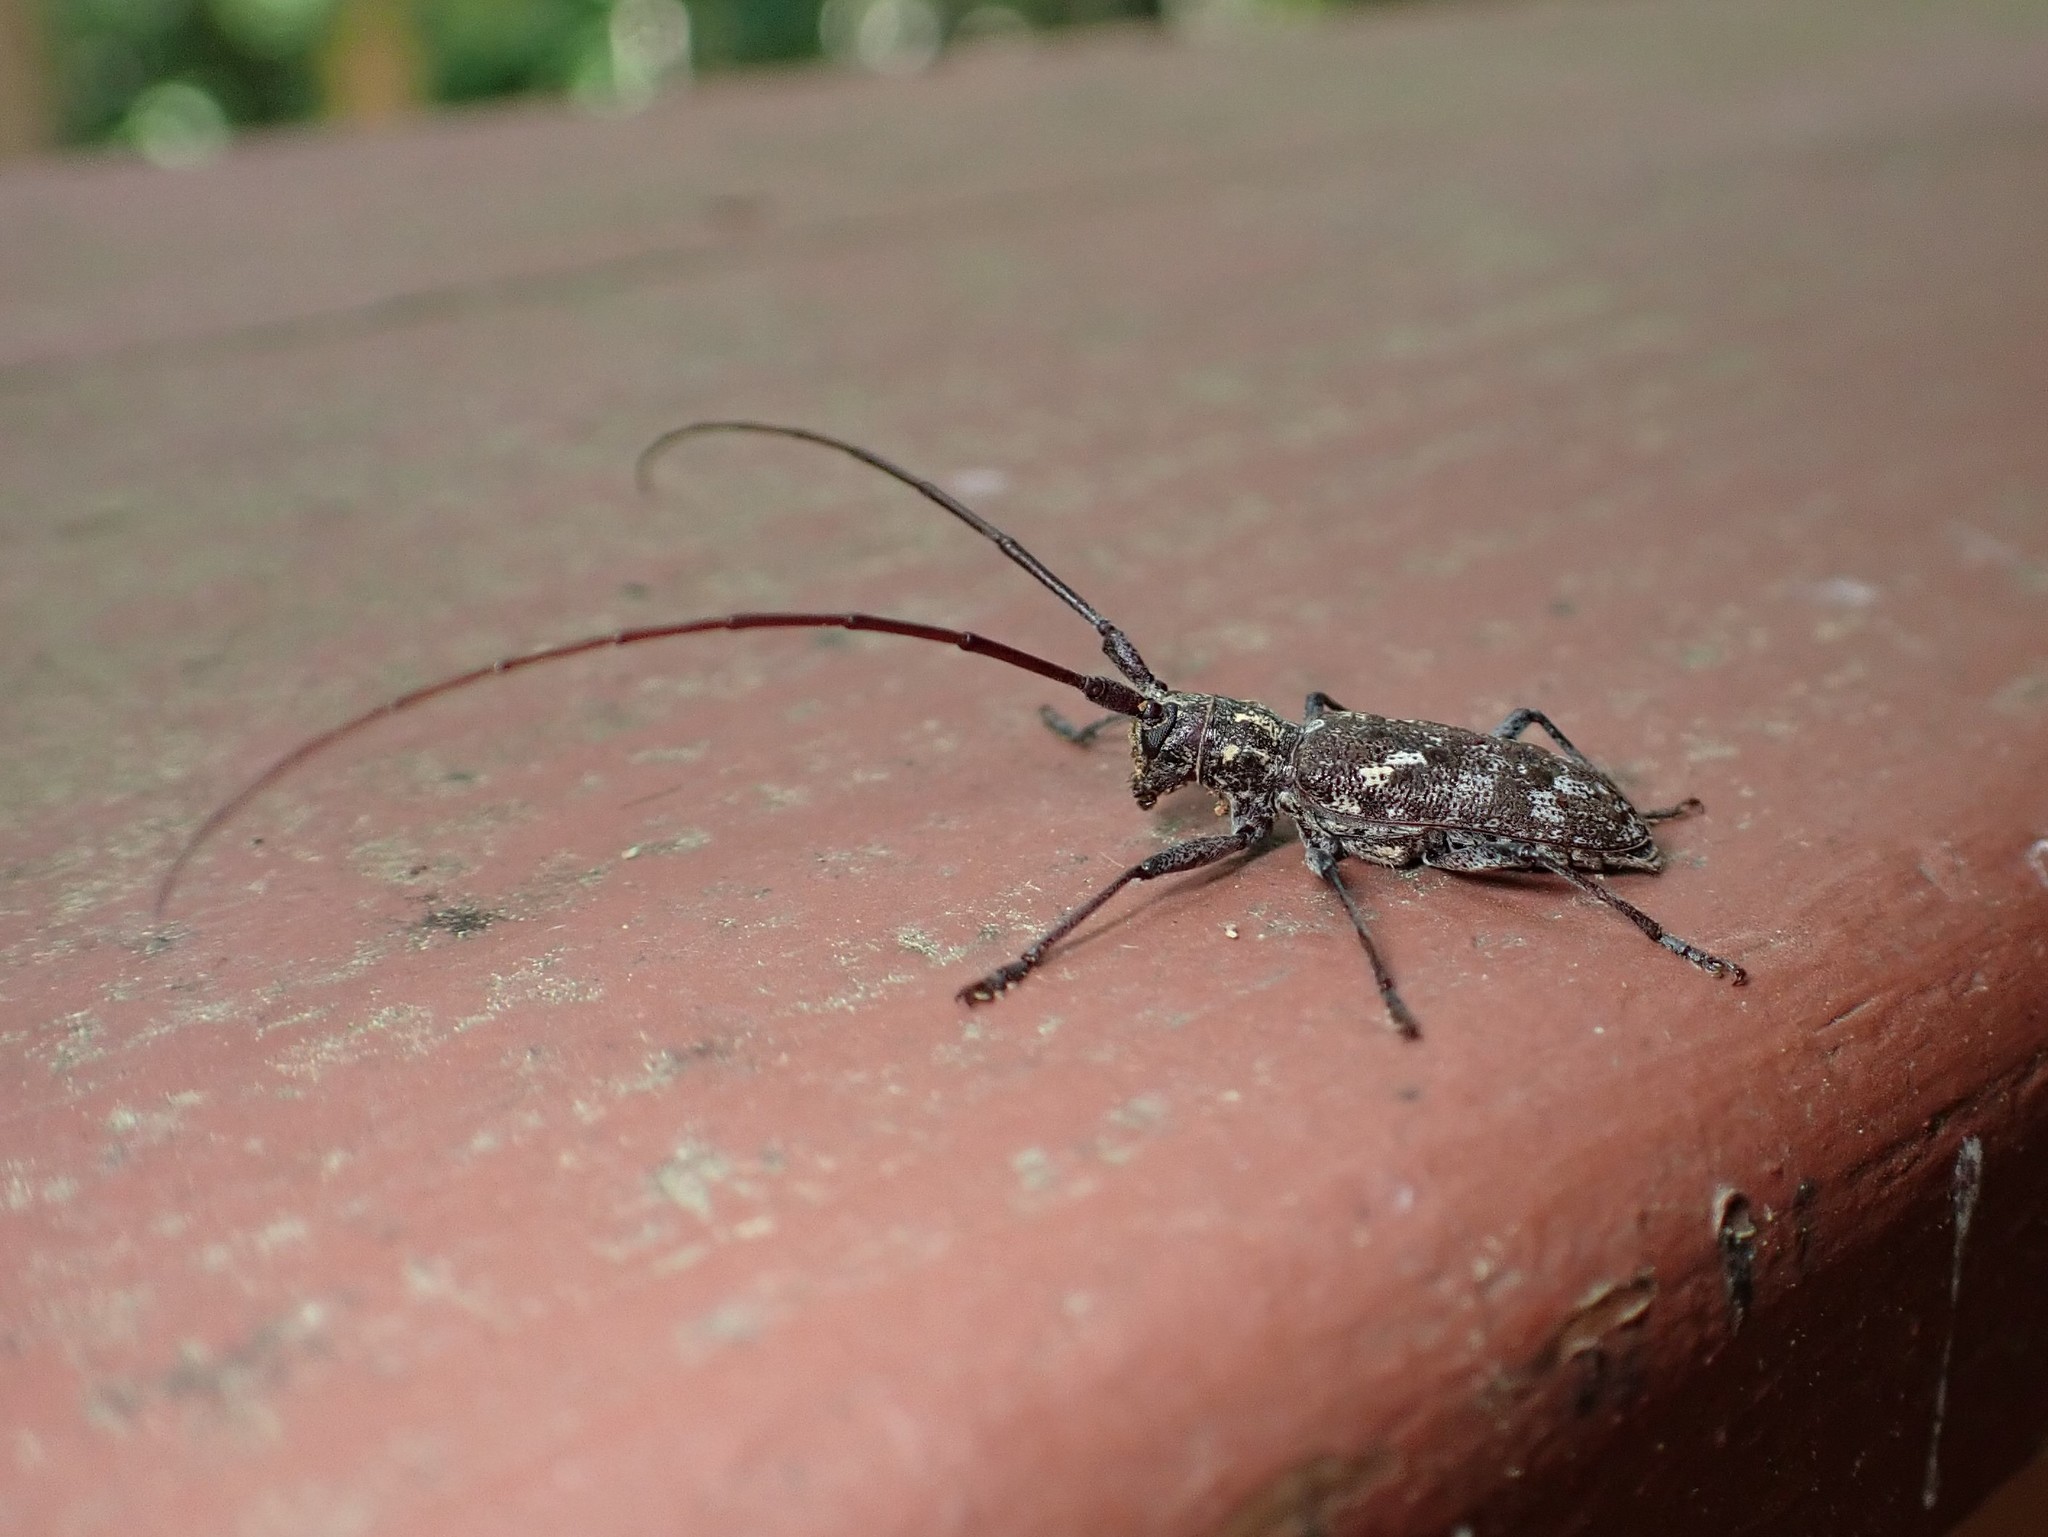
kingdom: Animalia
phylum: Arthropoda
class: Insecta
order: Coleoptera
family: Cerambycidae
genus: Monochamus
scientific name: Monochamus carolinensis
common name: Carolina pine sawyer
